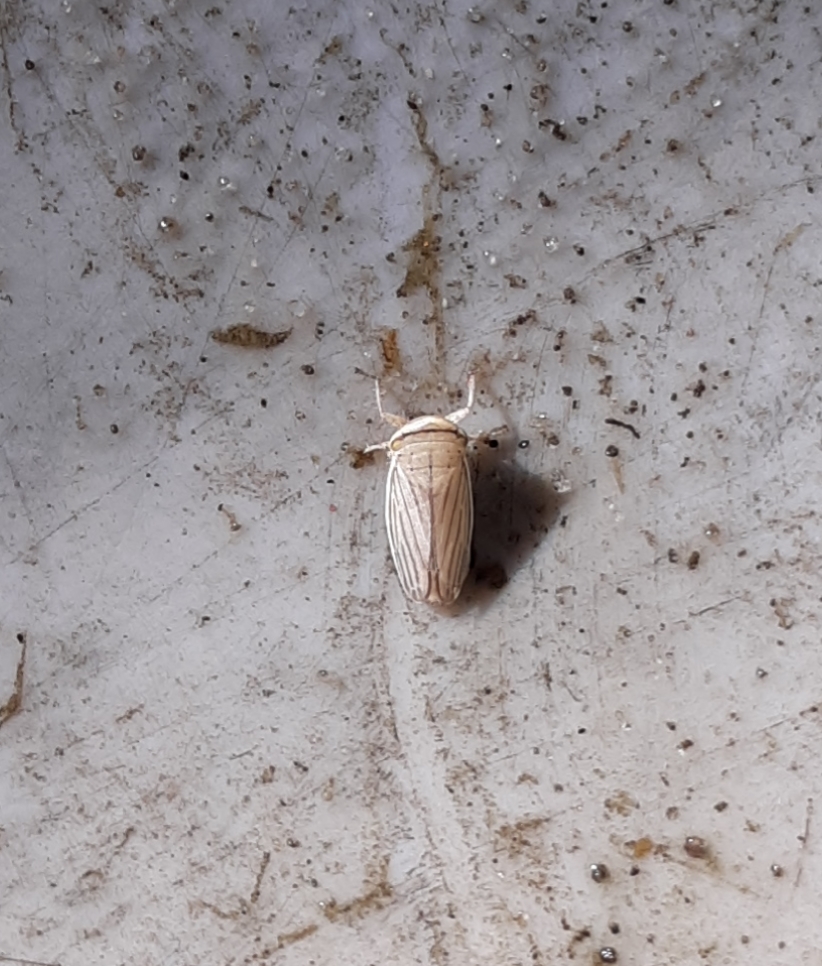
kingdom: Animalia
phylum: Arthropoda
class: Insecta
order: Hemiptera
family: Cicadellidae
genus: Athysanus
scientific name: Athysanus argentarius
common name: Silver leafhopper
